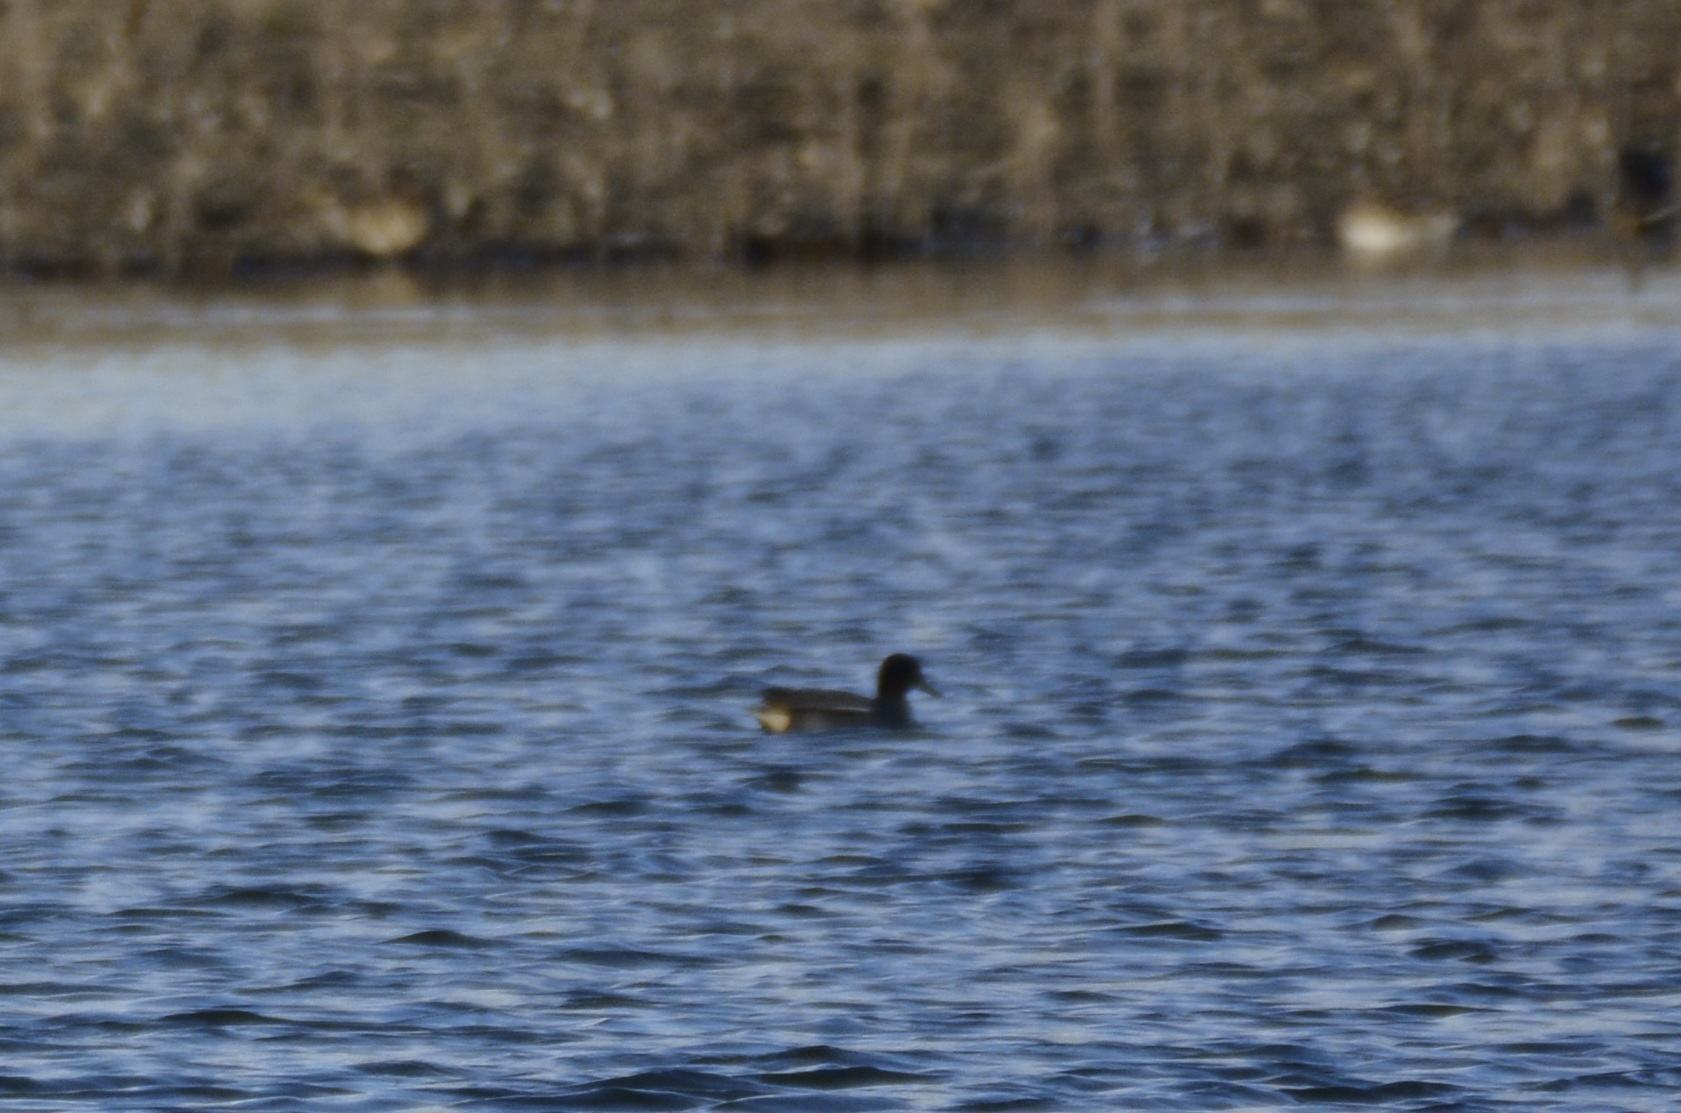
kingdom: Animalia
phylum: Chordata
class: Aves
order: Anseriformes
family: Anatidae
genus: Anas
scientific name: Anas crecca
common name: Eurasian teal
